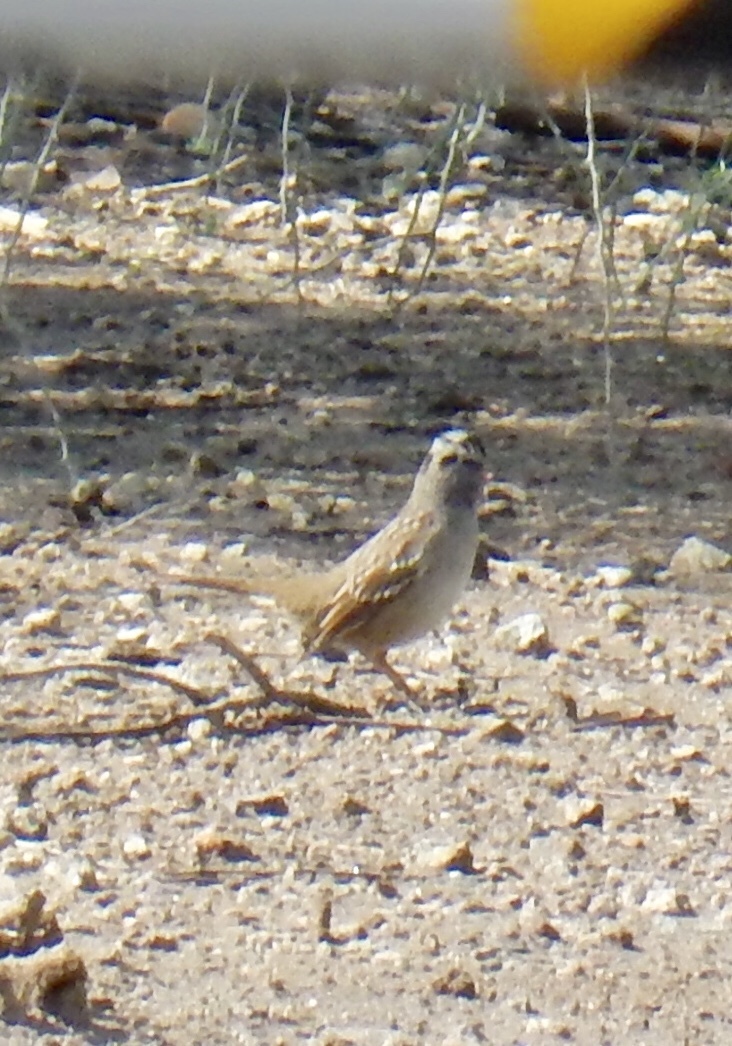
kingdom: Animalia
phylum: Chordata
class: Aves
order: Passeriformes
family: Passerellidae
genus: Zonotrichia
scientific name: Zonotrichia leucophrys
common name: White-crowned sparrow
